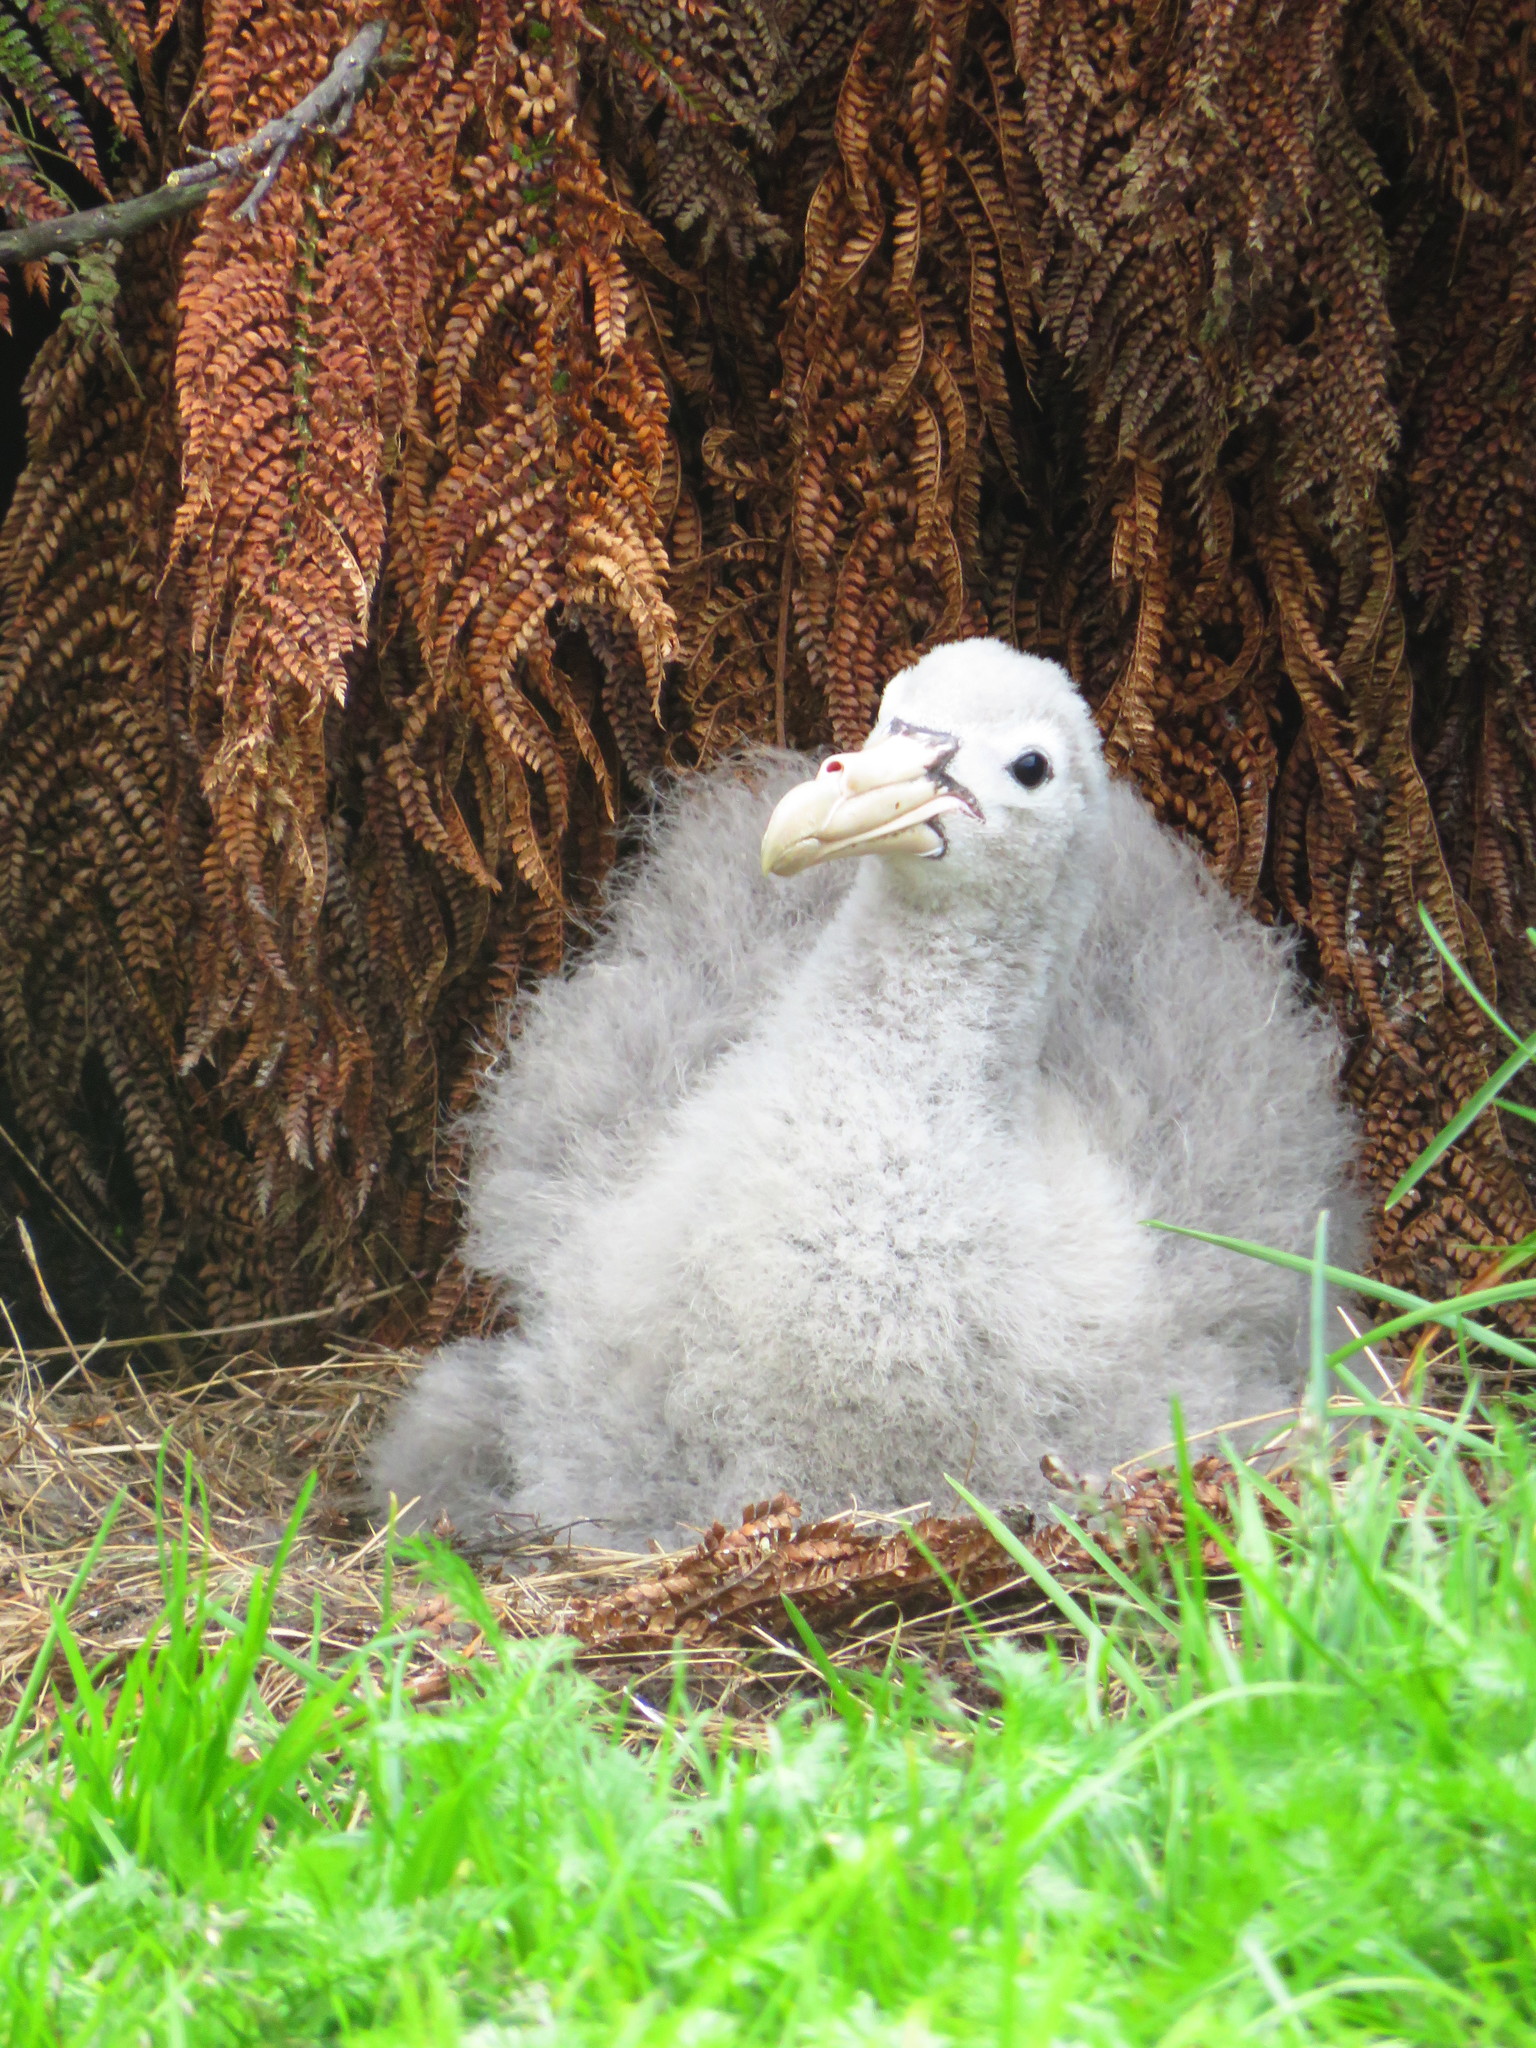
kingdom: Animalia
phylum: Chordata
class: Aves
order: Procellariiformes
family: Procellariidae
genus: Macronectes
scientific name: Macronectes halli
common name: Northern giant petrel
